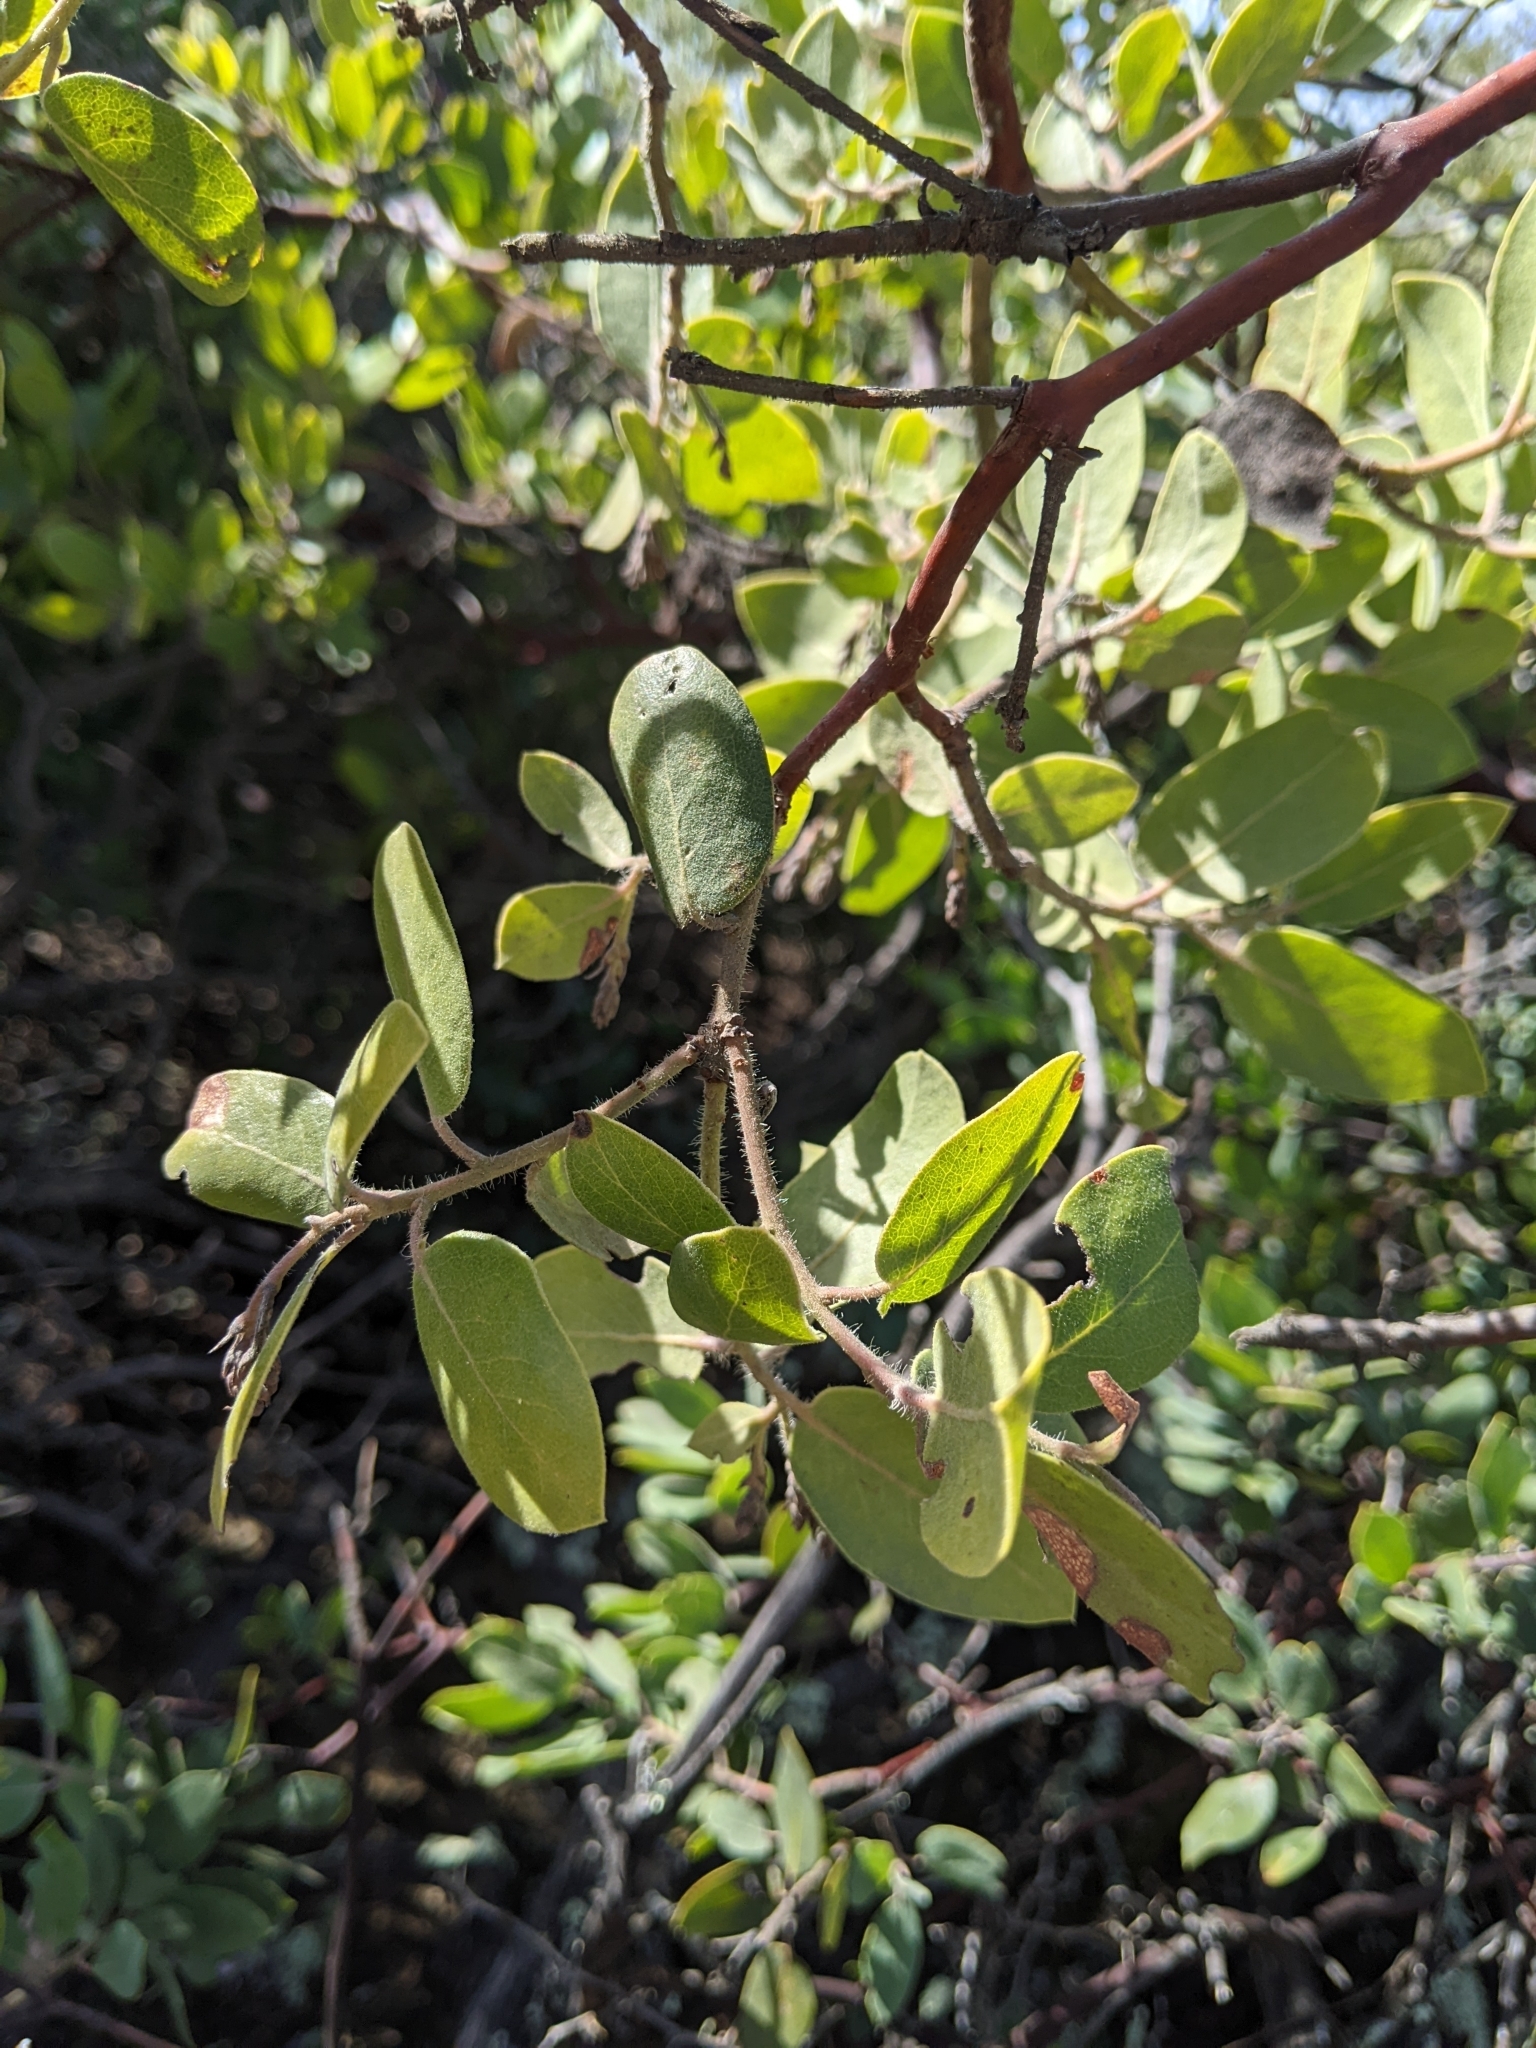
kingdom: Plantae
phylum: Tracheophyta
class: Magnoliopsida
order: Ericales
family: Ericaceae
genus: Arctostaphylos
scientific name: Arctostaphylos crustacea
